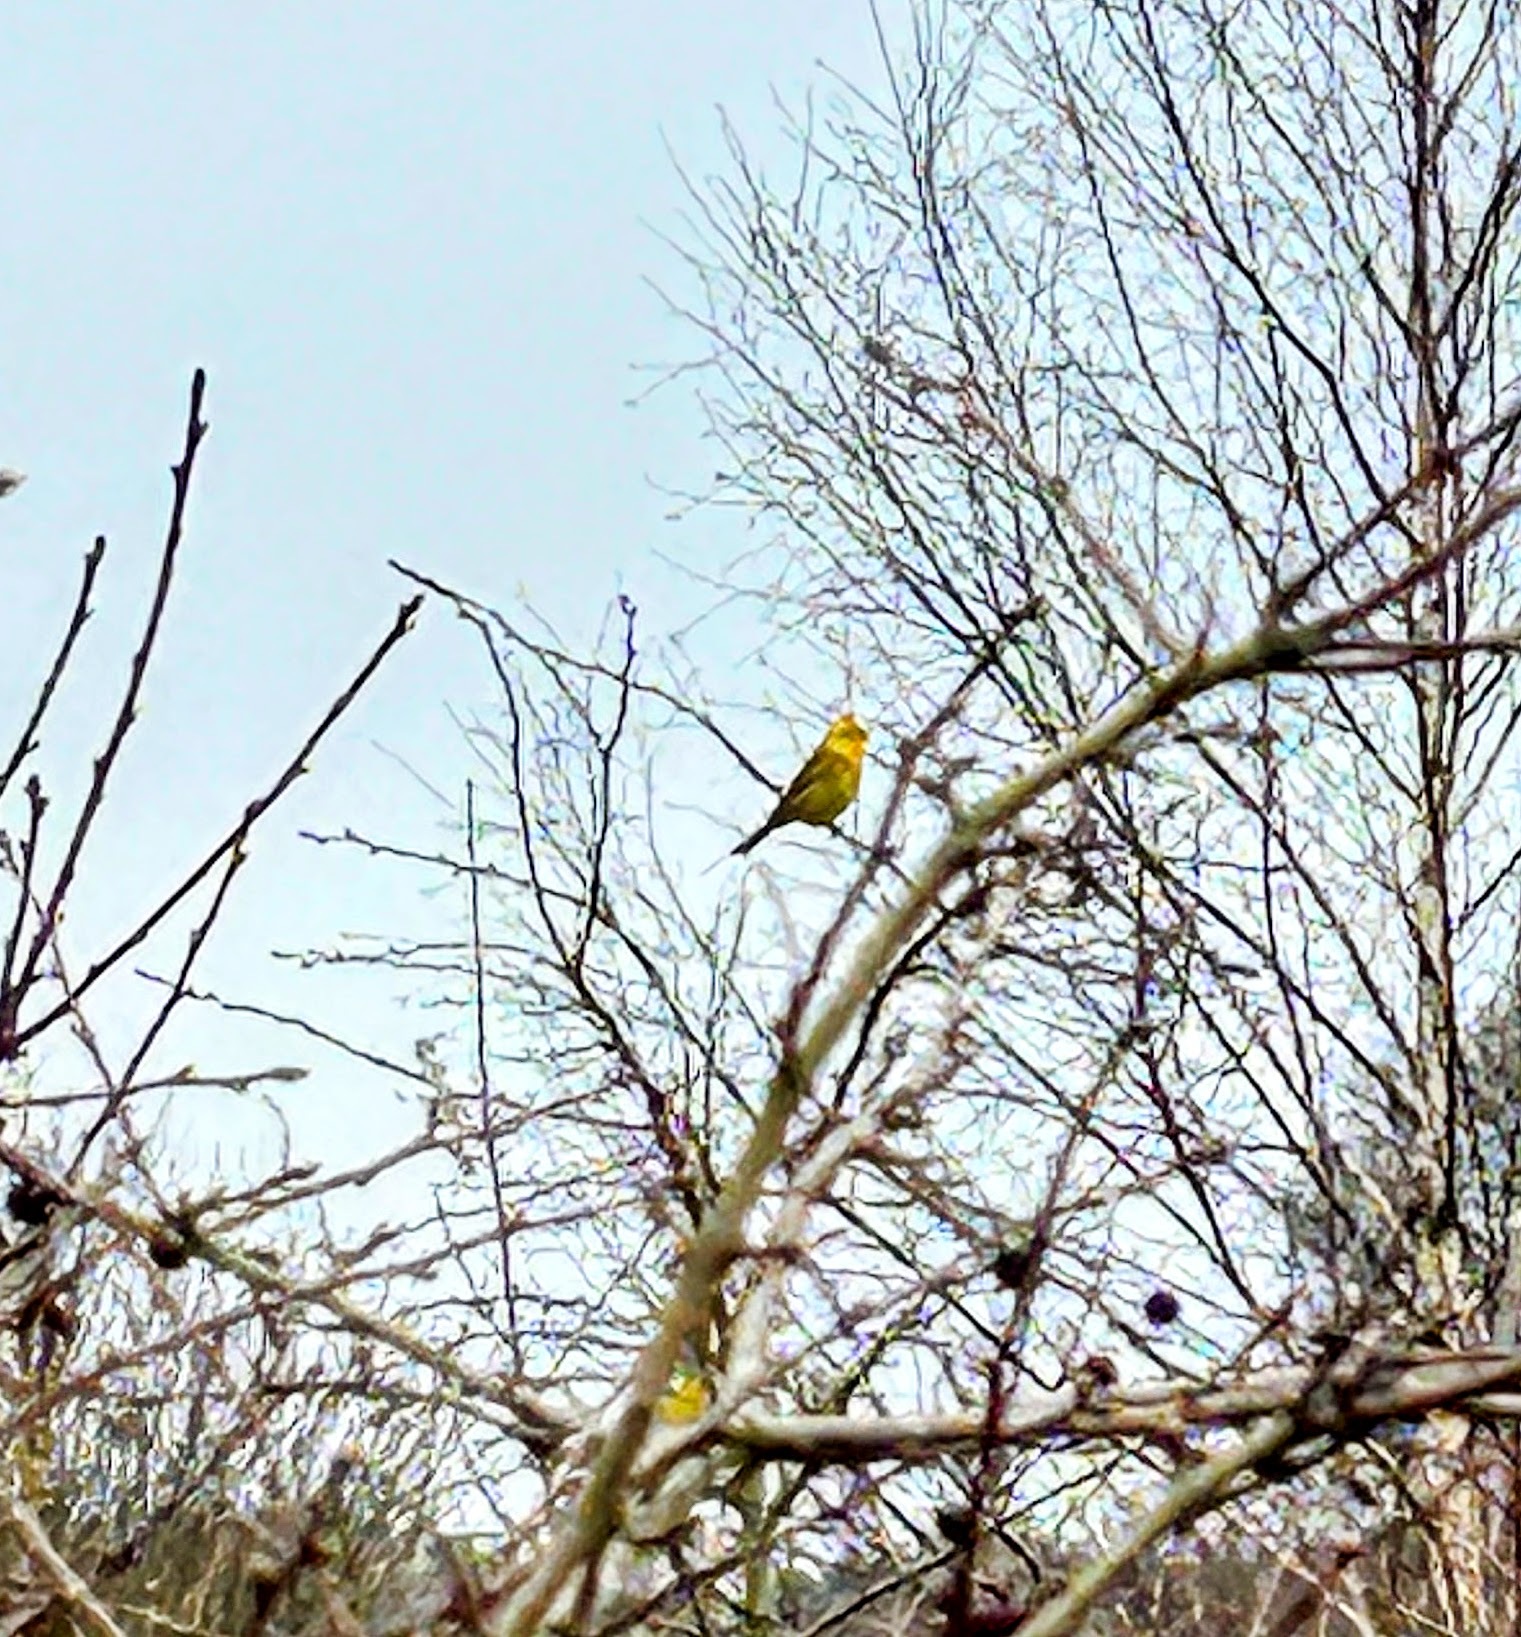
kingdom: Animalia
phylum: Chordata
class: Aves
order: Passeriformes
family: Emberizidae
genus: Emberiza
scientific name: Emberiza citrinella
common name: Yellowhammer
